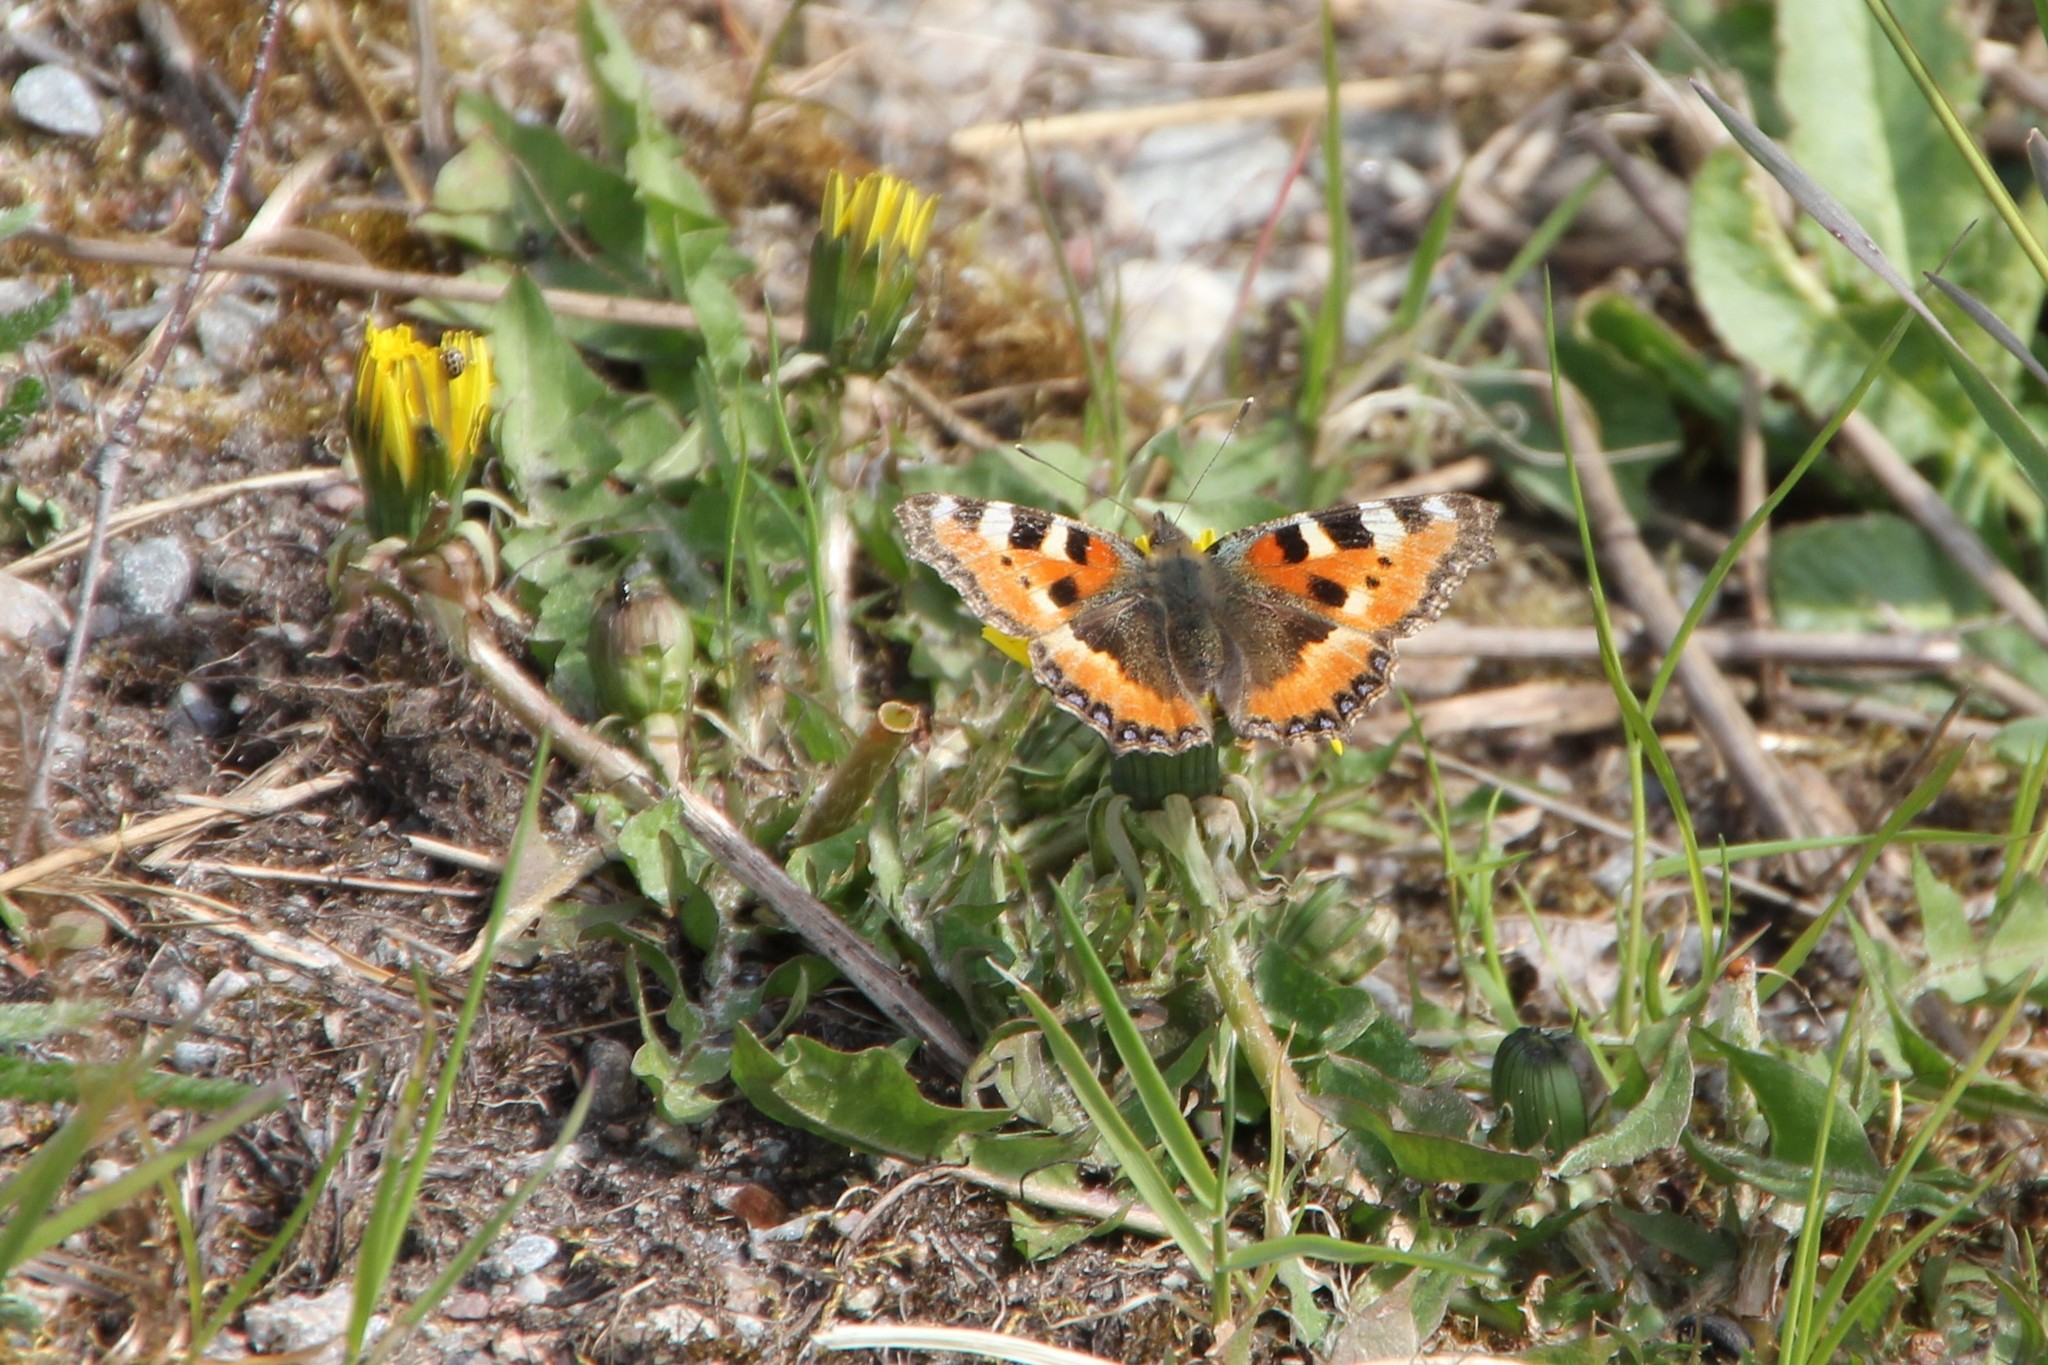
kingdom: Animalia
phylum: Arthropoda
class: Insecta
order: Lepidoptera
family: Nymphalidae
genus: Aglais
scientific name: Aglais urticae
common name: Small tortoiseshell
